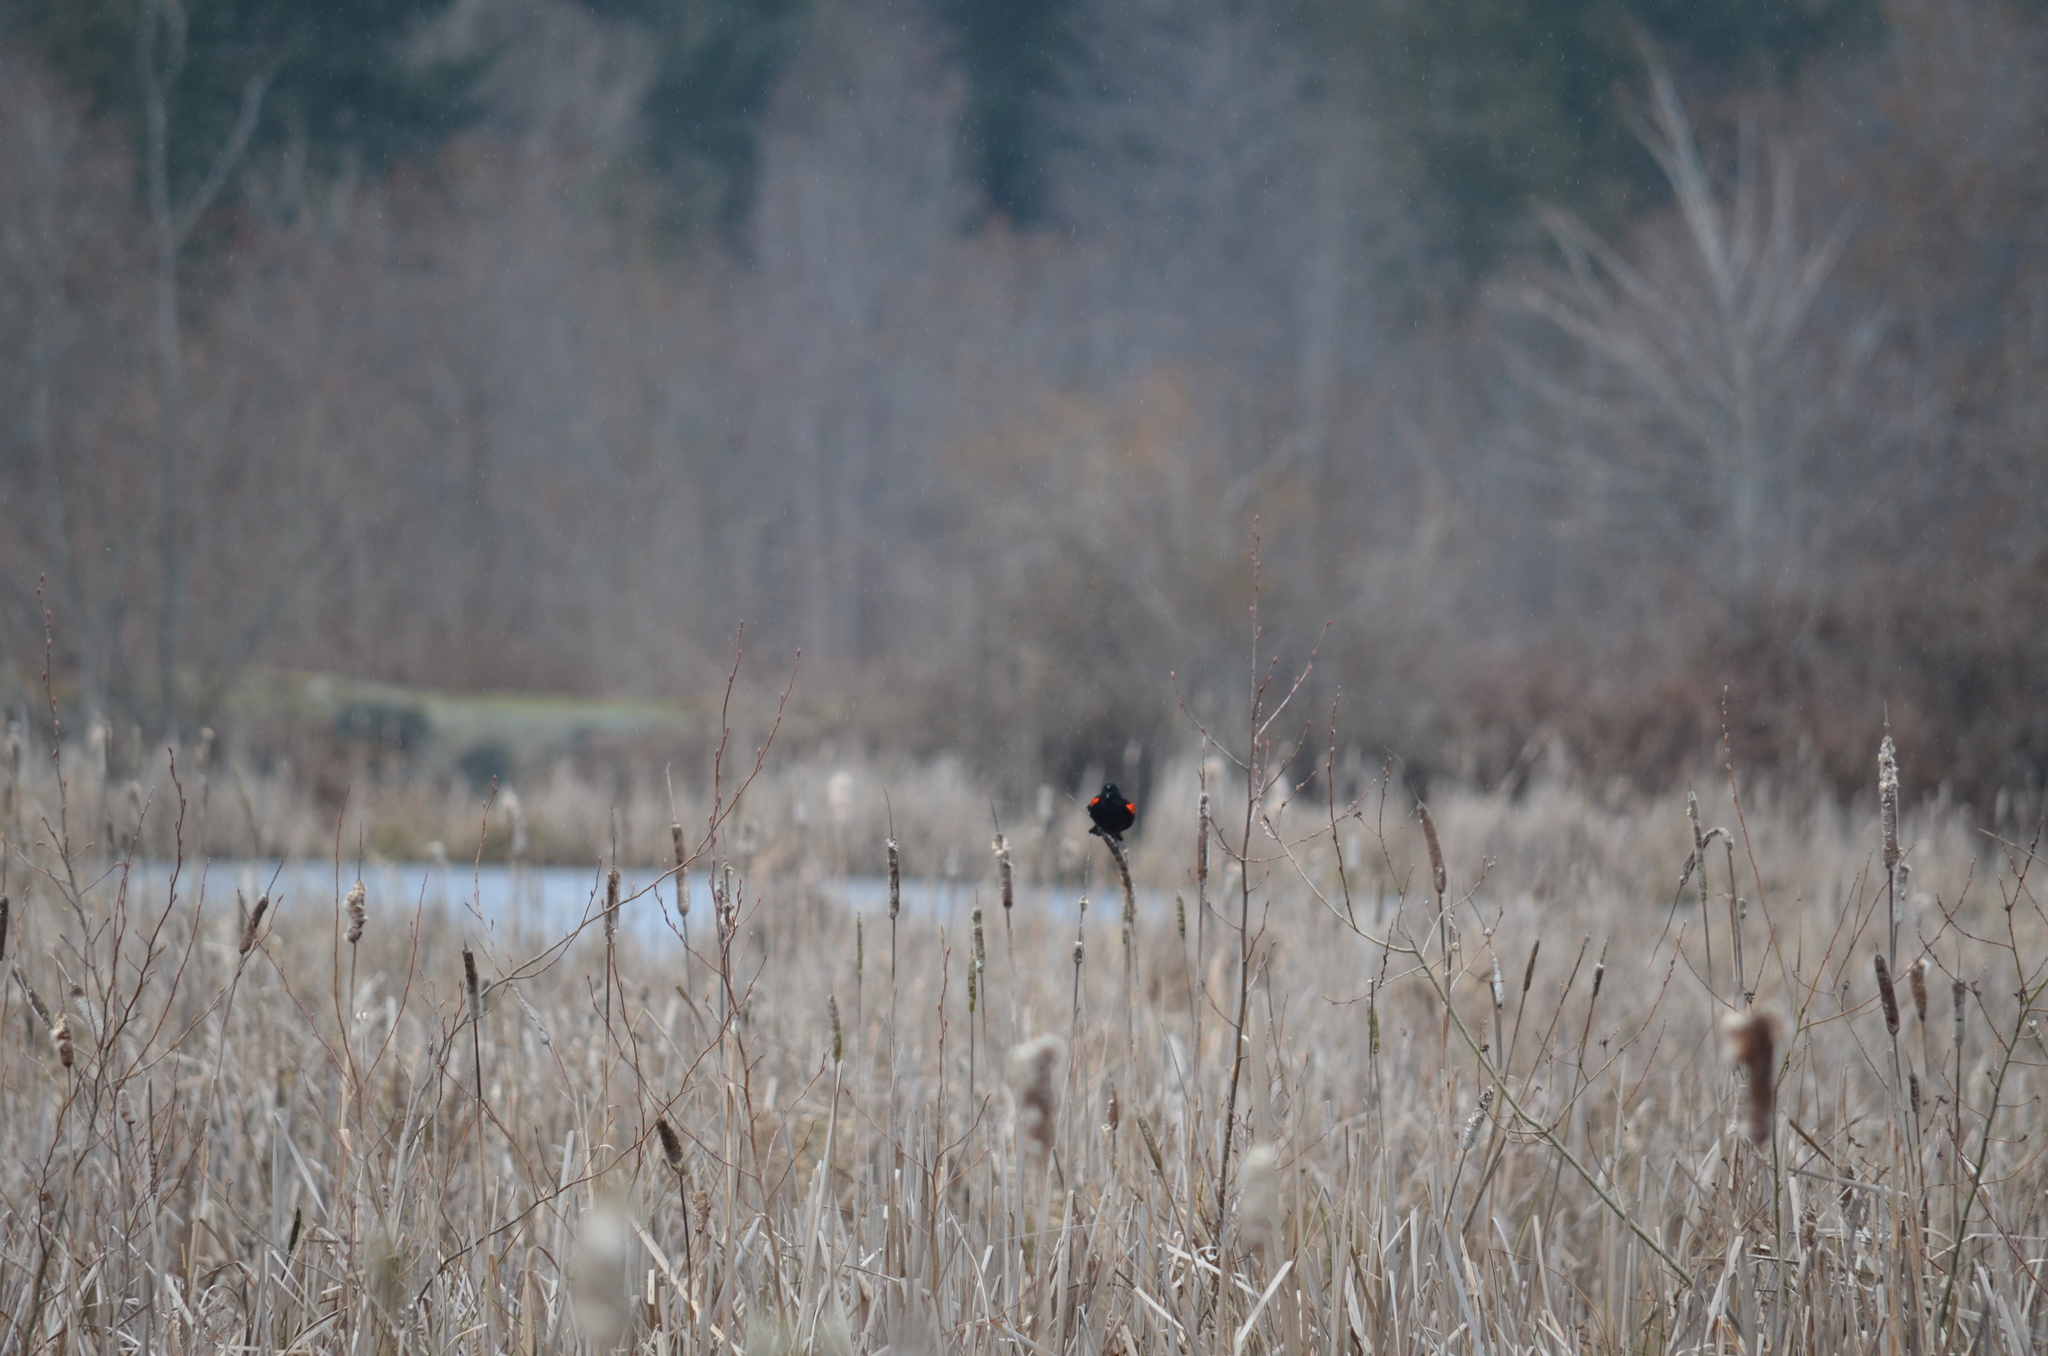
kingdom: Animalia
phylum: Chordata
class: Aves
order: Passeriformes
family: Icteridae
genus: Agelaius
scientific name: Agelaius phoeniceus
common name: Red-winged blackbird
